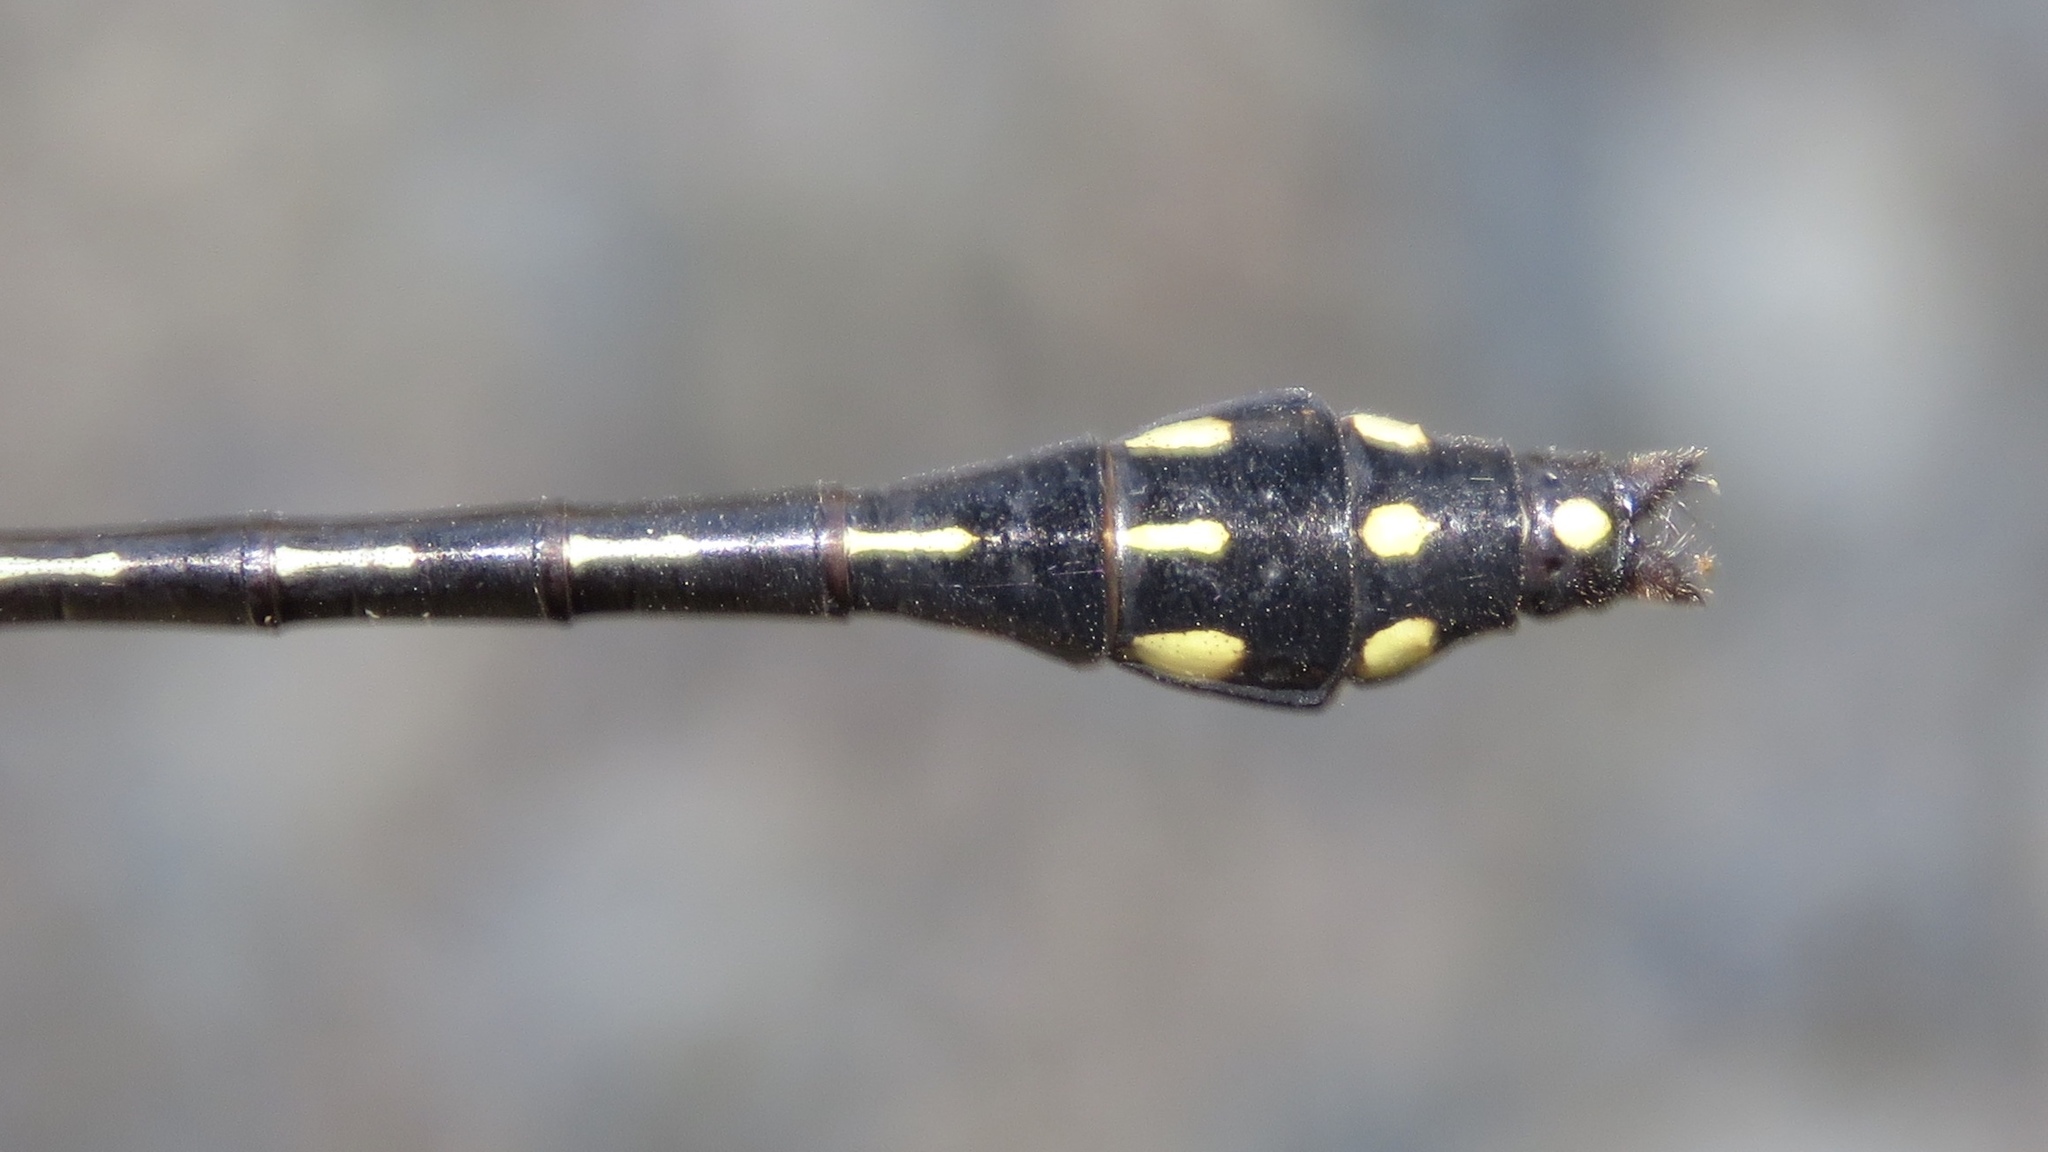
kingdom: Animalia
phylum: Arthropoda
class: Insecta
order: Odonata
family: Gomphidae
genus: Ophiogomphus
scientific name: Ophiogomphus anomalus
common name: Extra-striped snaketail
